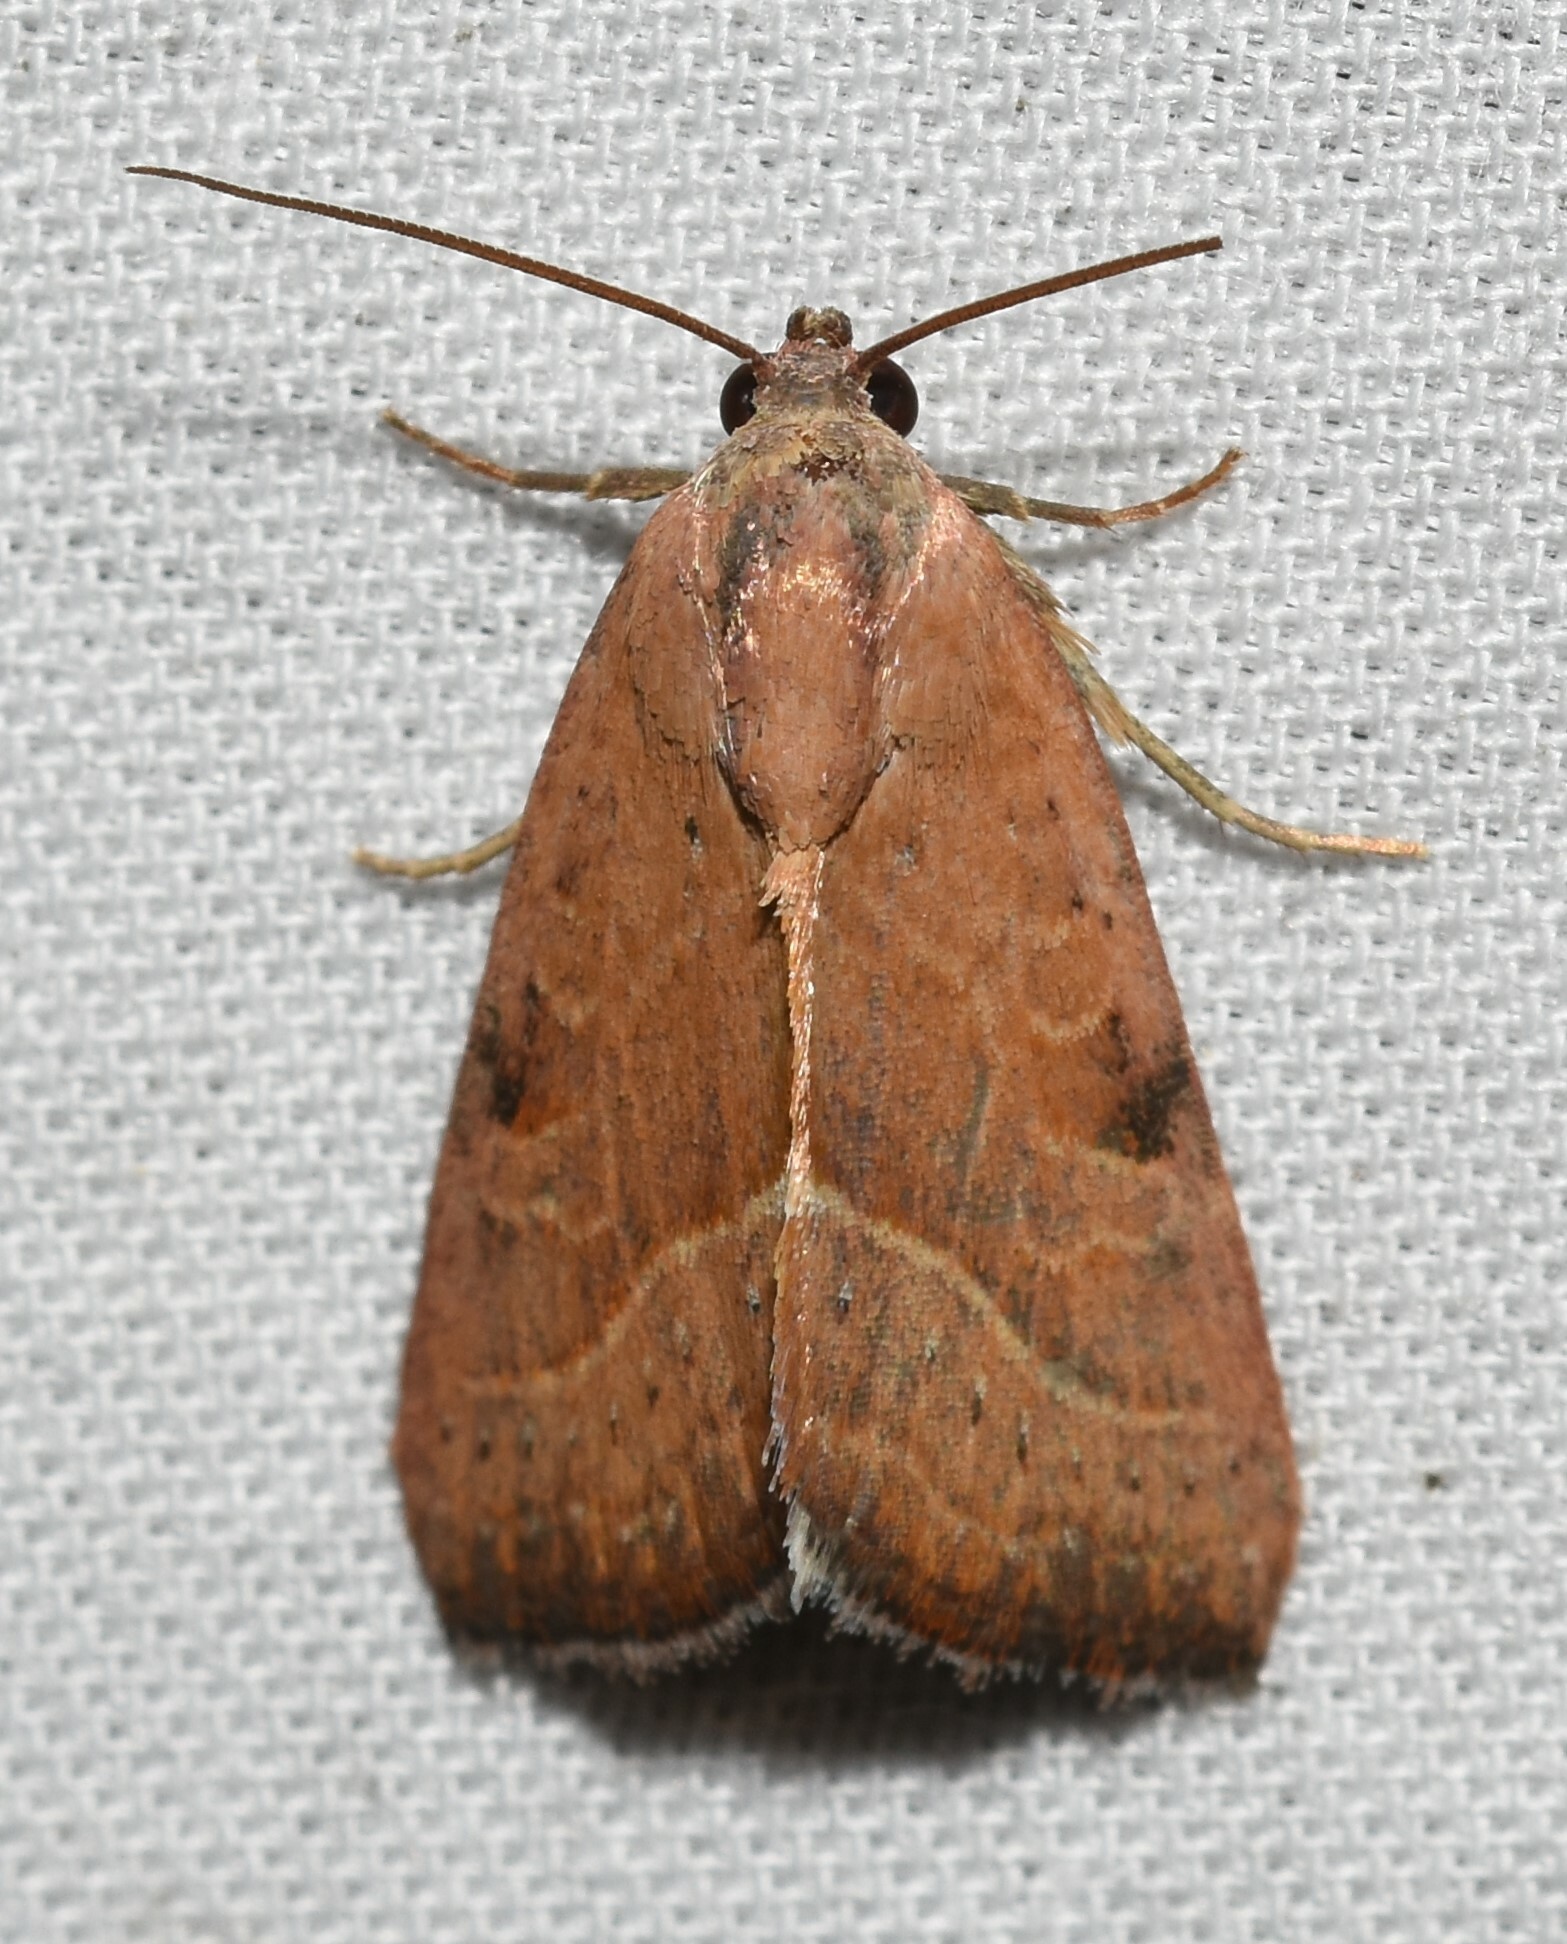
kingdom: Animalia
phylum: Arthropoda
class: Insecta
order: Lepidoptera
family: Noctuidae
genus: Galgula
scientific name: Galgula partita
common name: Wedgeling
